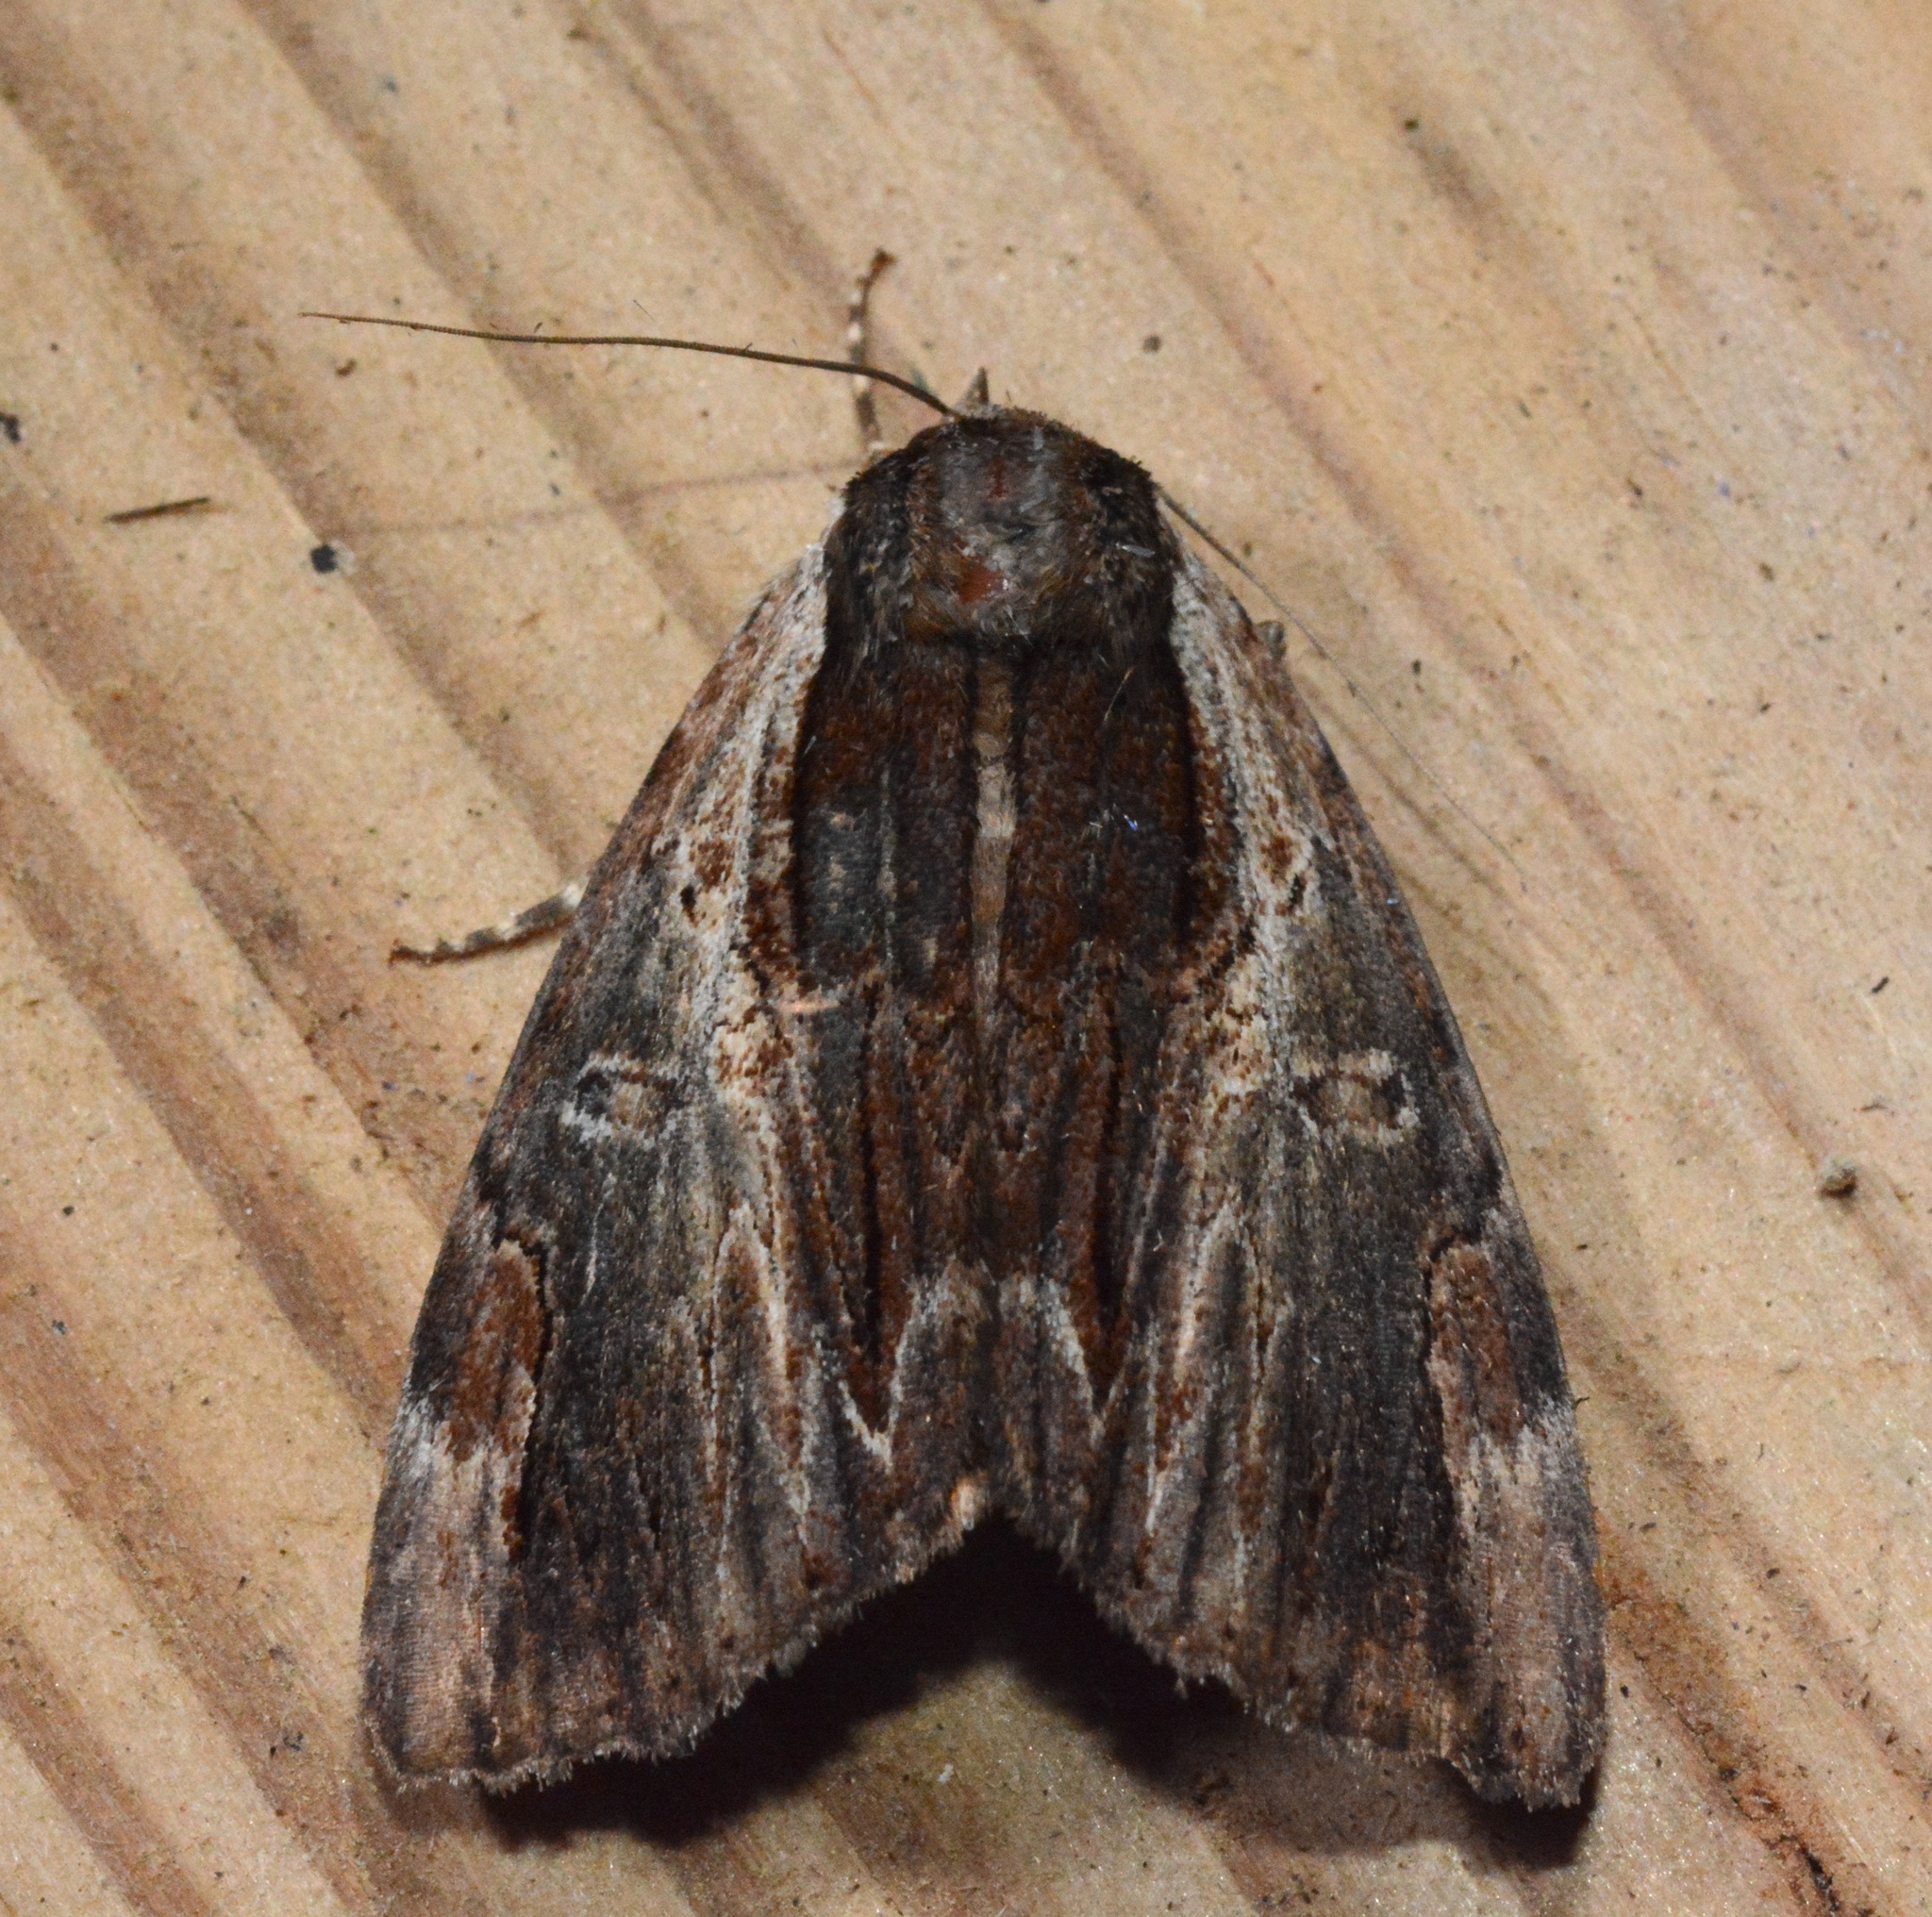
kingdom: Animalia
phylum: Arthropoda
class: Insecta
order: Lepidoptera
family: Erebidae
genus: Catocala
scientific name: Catocala ultronia
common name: Ultronia underwing
